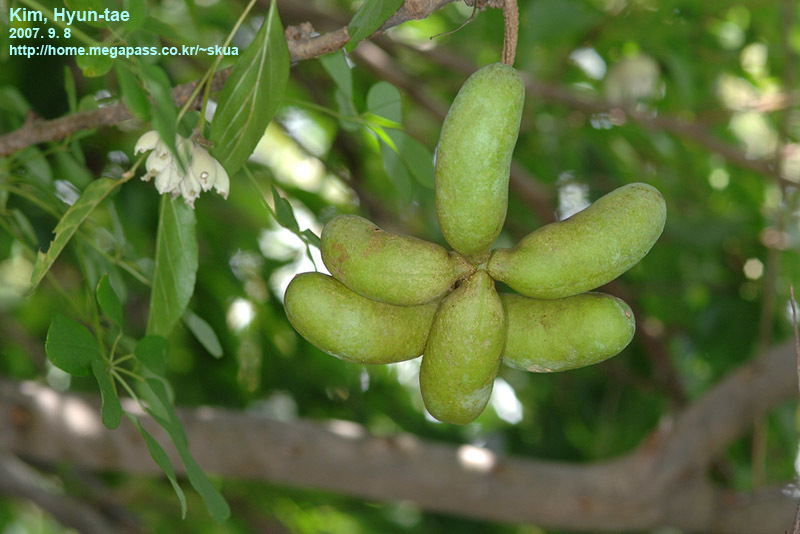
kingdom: Plantae
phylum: Tracheophyta
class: Magnoliopsida
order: Ranunculales
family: Lardizabalaceae
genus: Akebia
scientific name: Akebia quinata
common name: Five-leaf akebia
